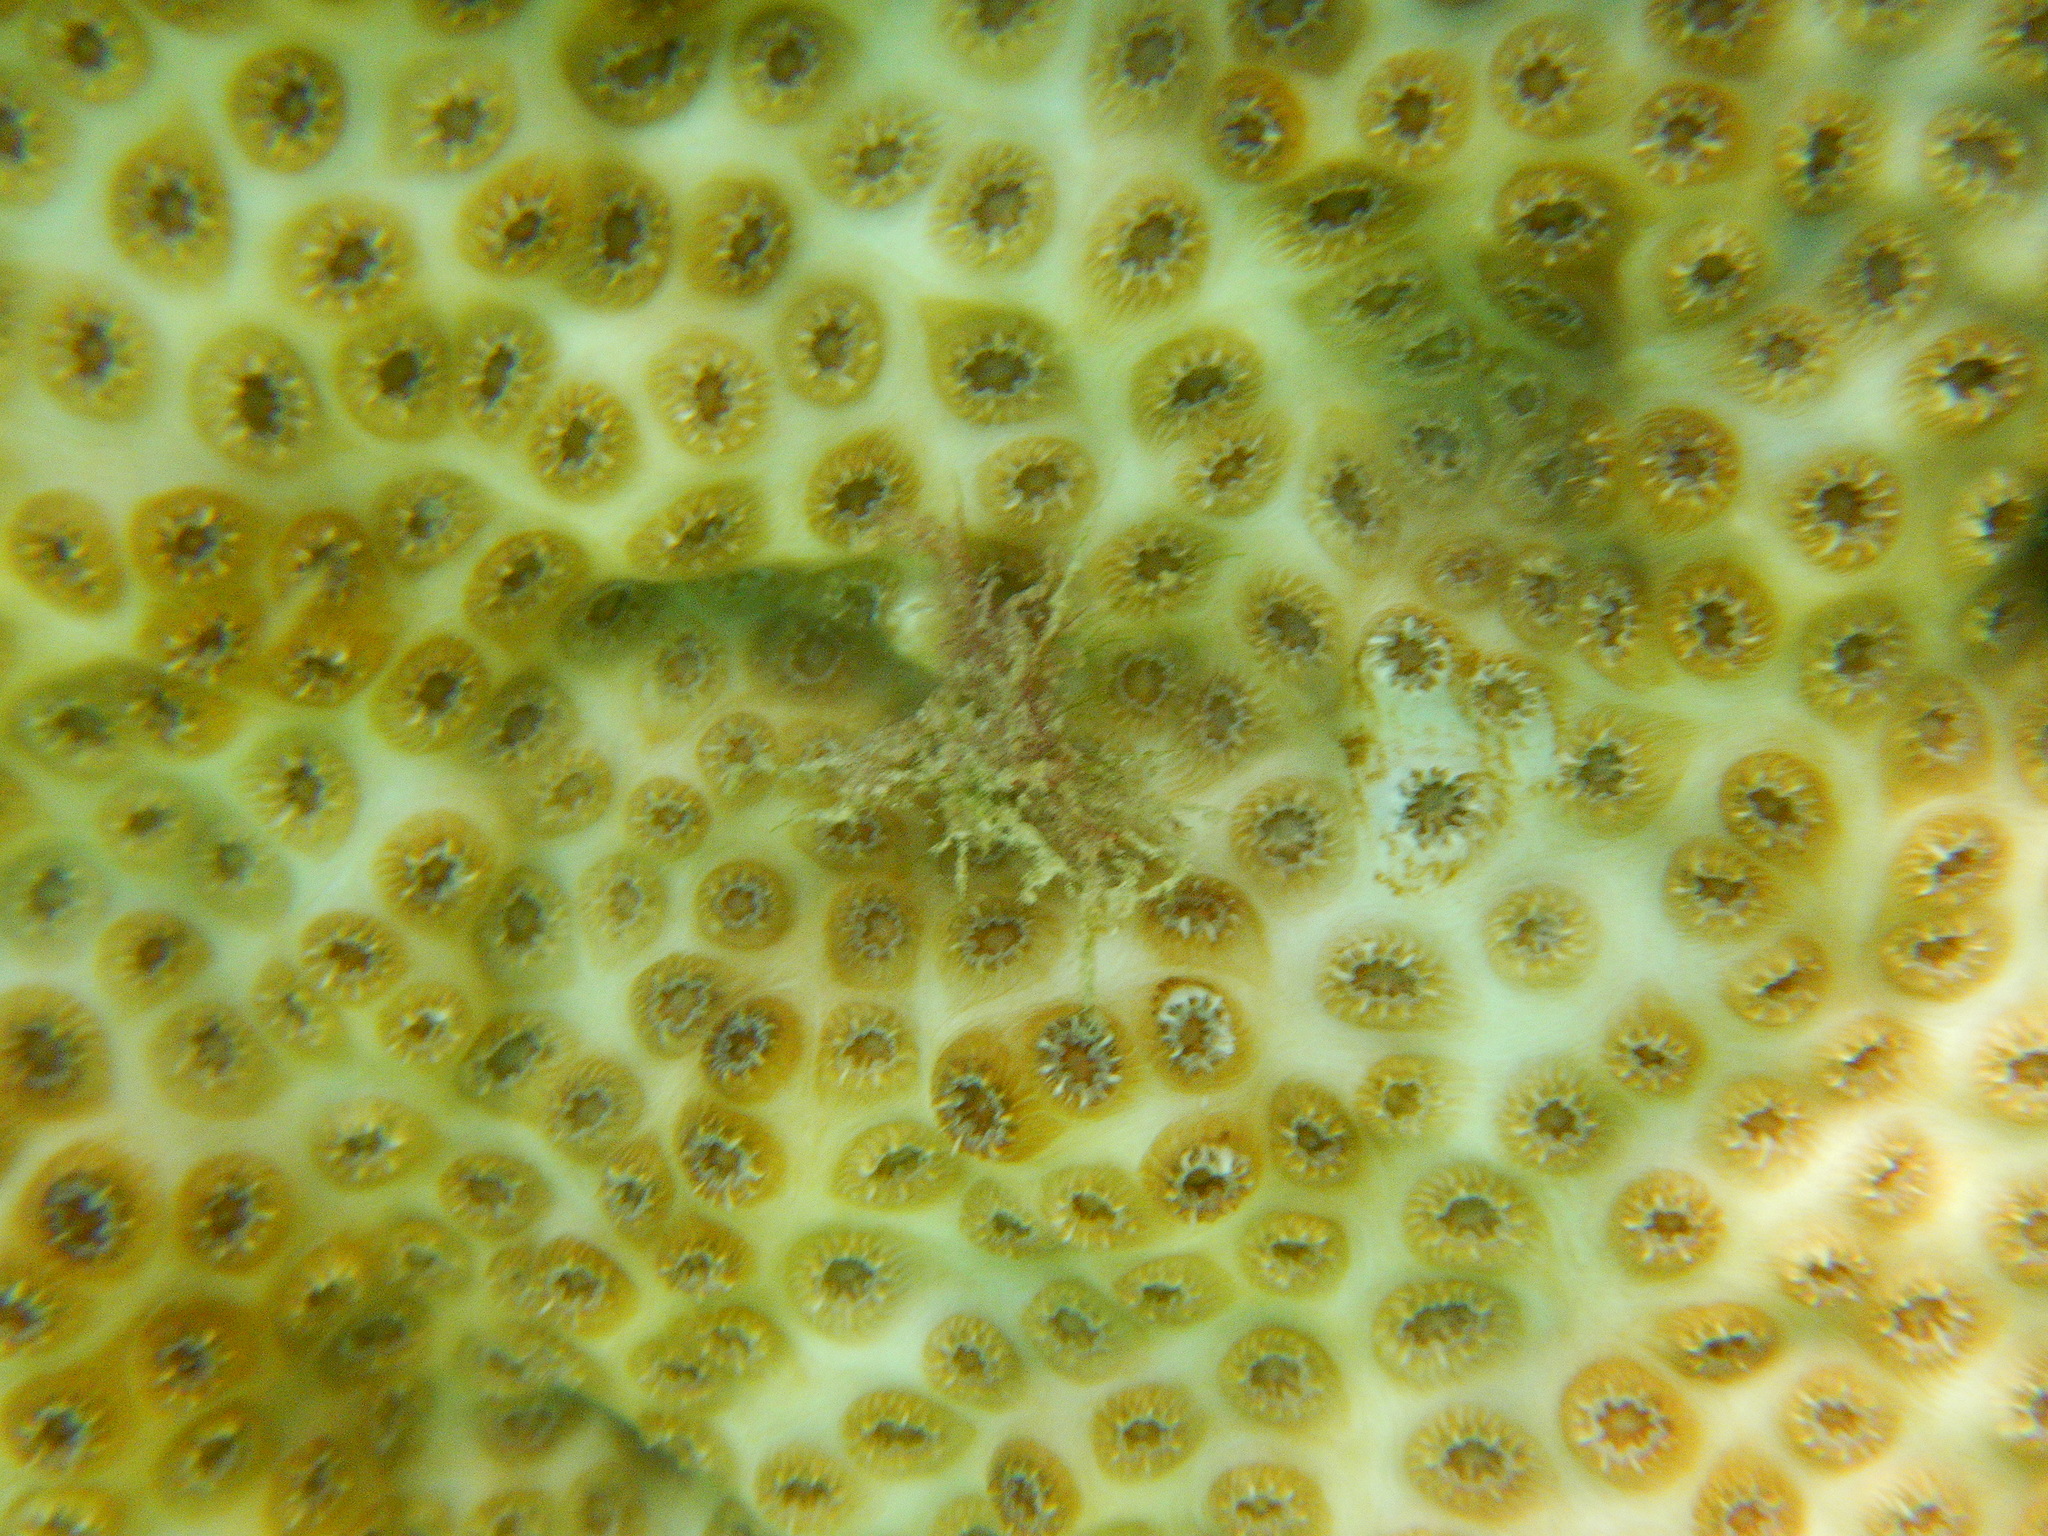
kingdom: Animalia
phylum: Cnidaria
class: Anthozoa
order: Scleractinia
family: Oculinidae
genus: Oculina
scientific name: Oculina patagonica
